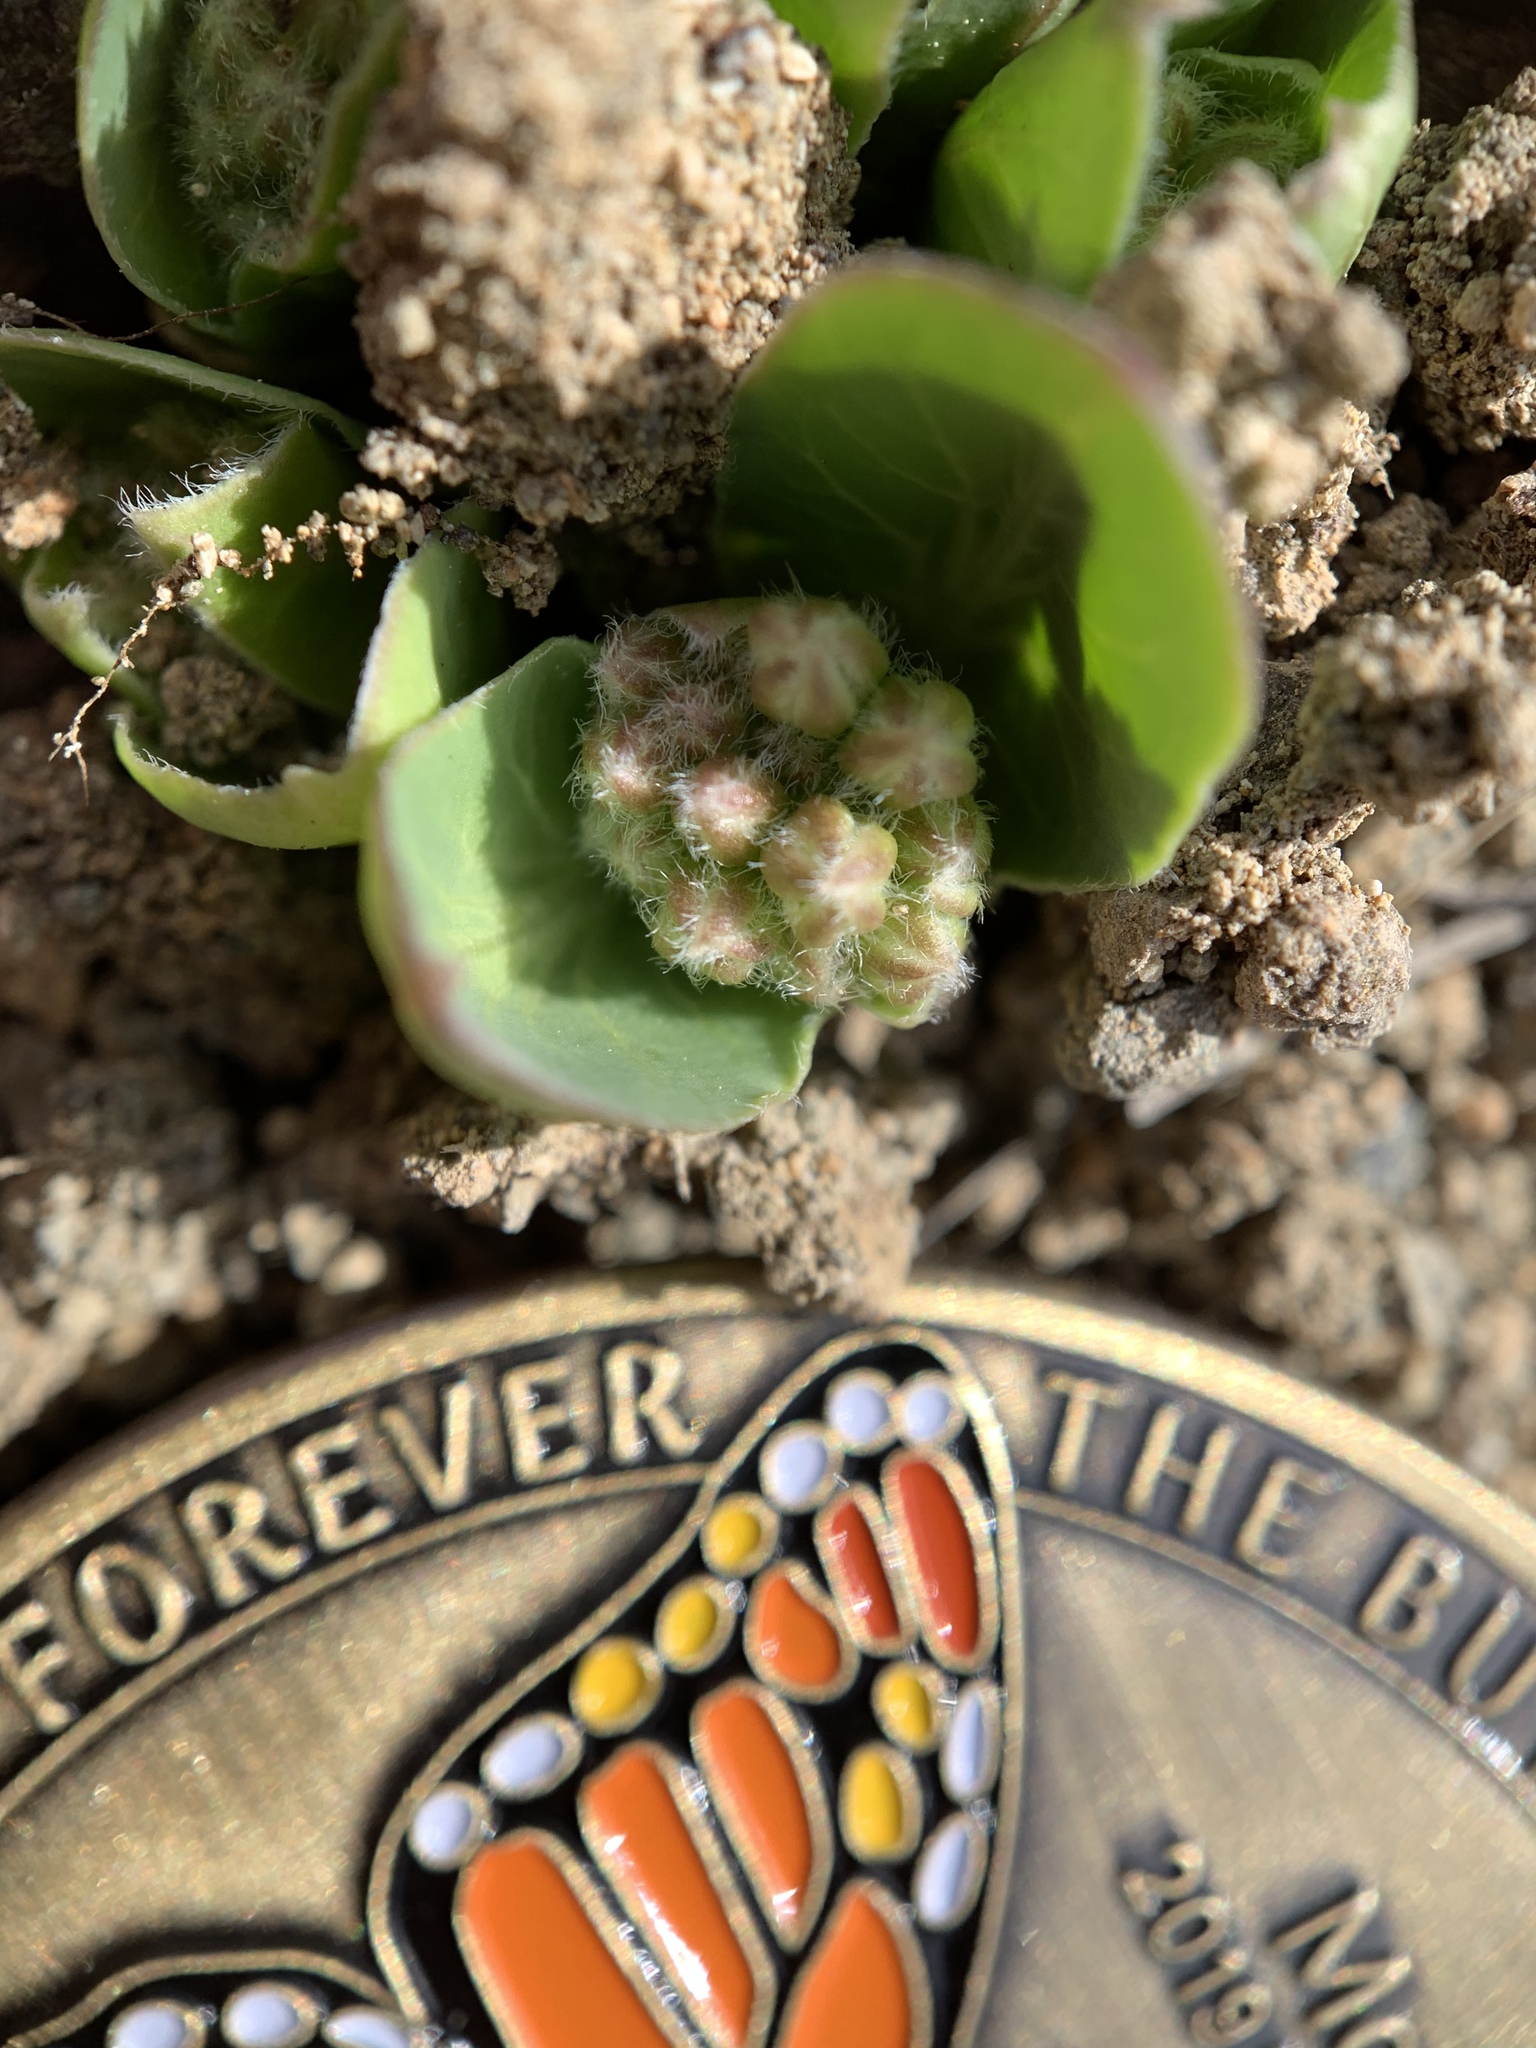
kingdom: Plantae
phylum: Tracheophyta
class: Magnoliopsida
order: Gentianales
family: Apocynaceae
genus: Asclepias
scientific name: Asclepias cryptoceras
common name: Humboldt mountains milkweed
